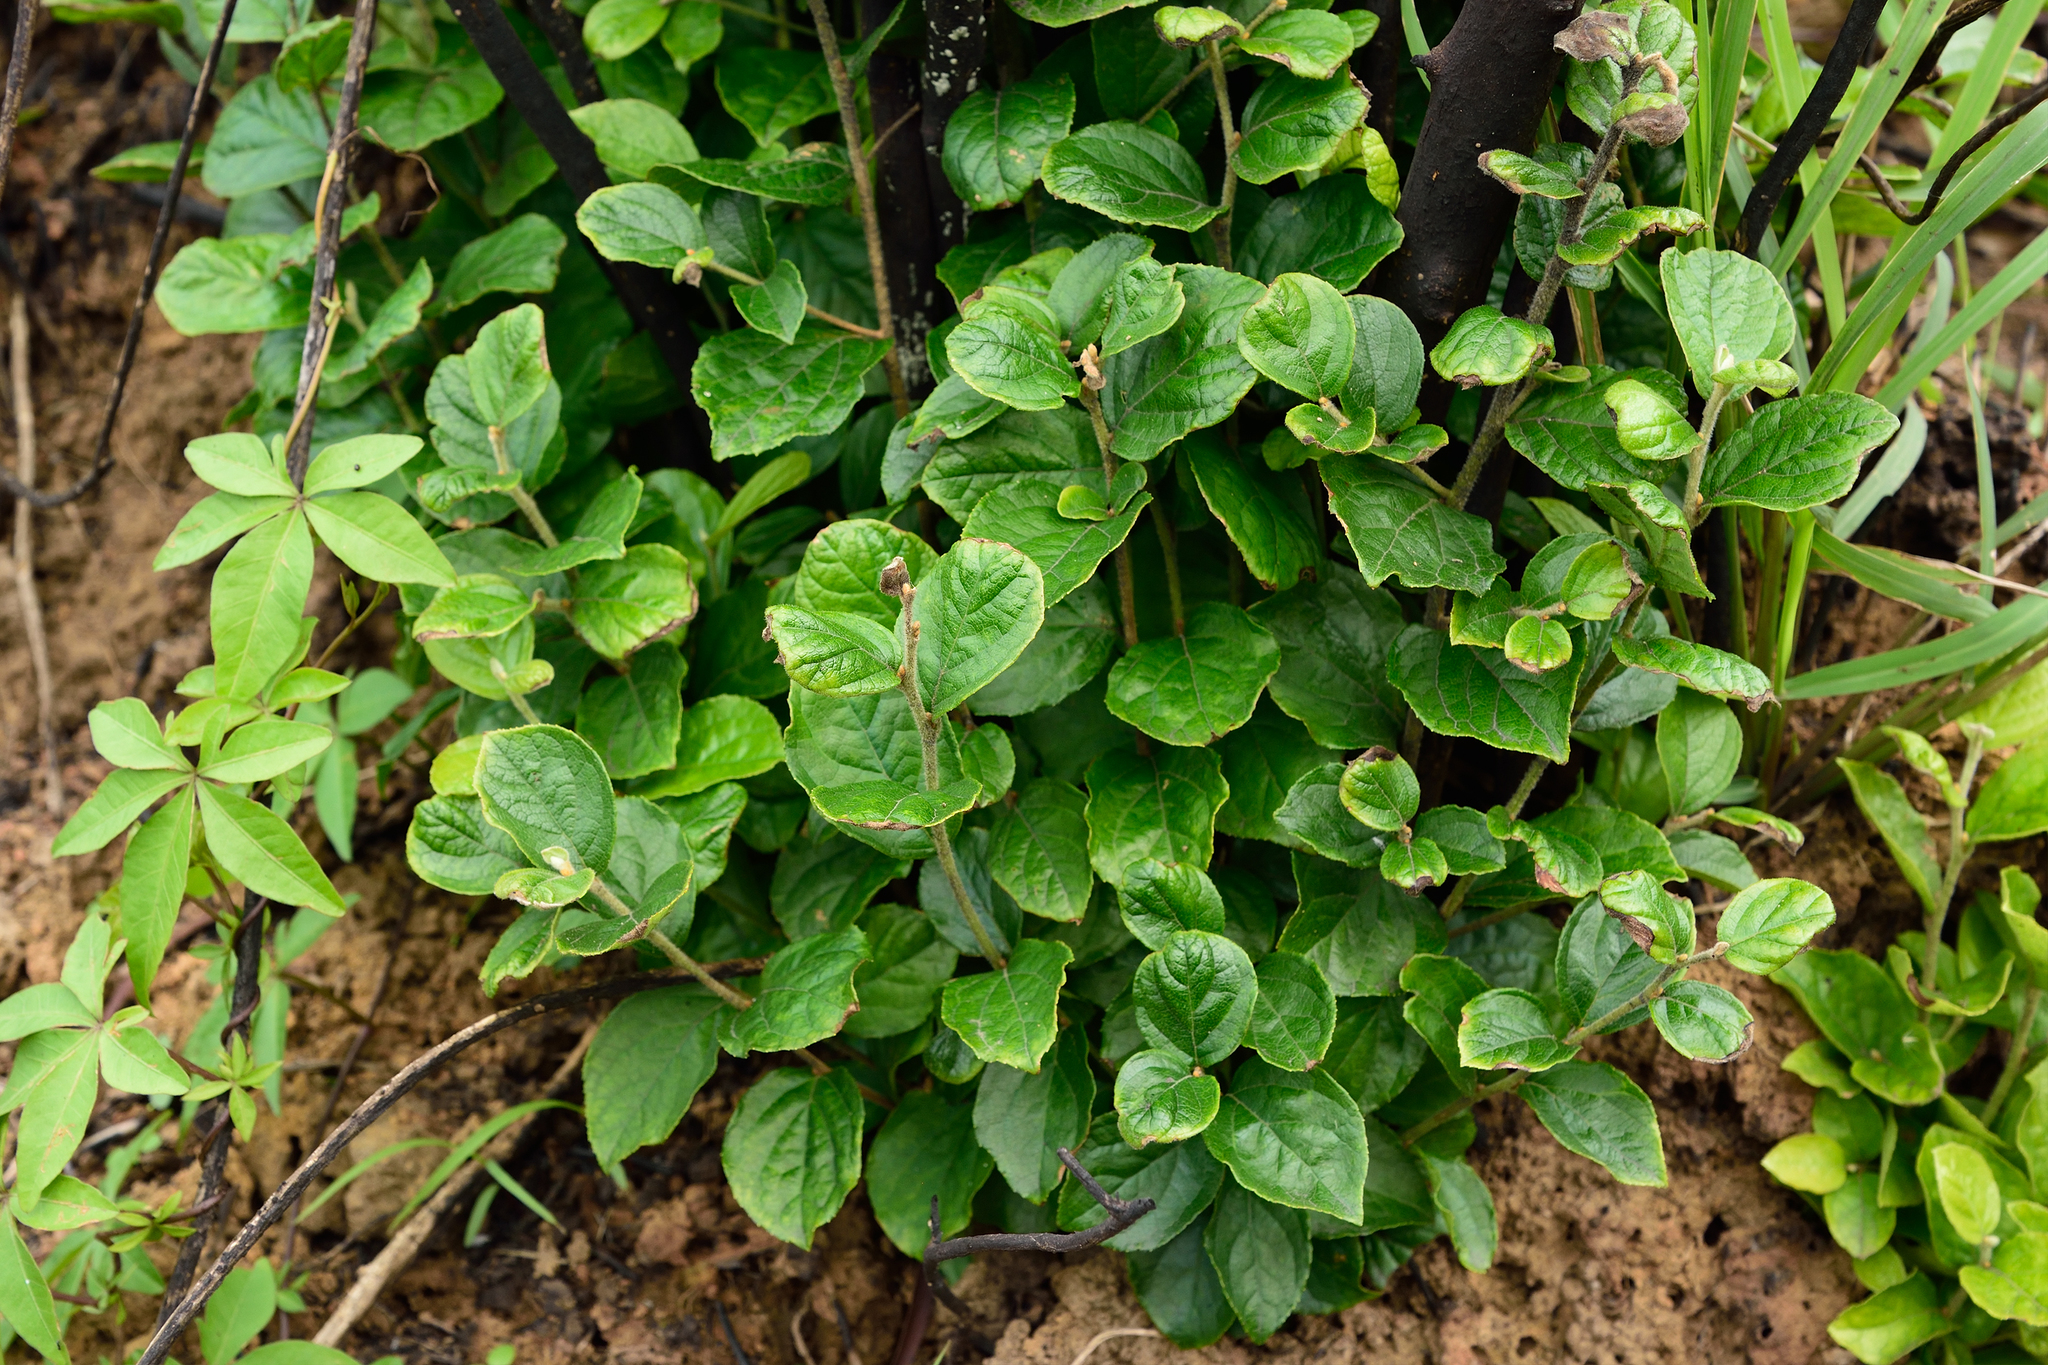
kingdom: Plantae
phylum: Tracheophyta
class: Magnoliopsida
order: Ericales
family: Styracaceae
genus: Styrax
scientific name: Styrax faberi
